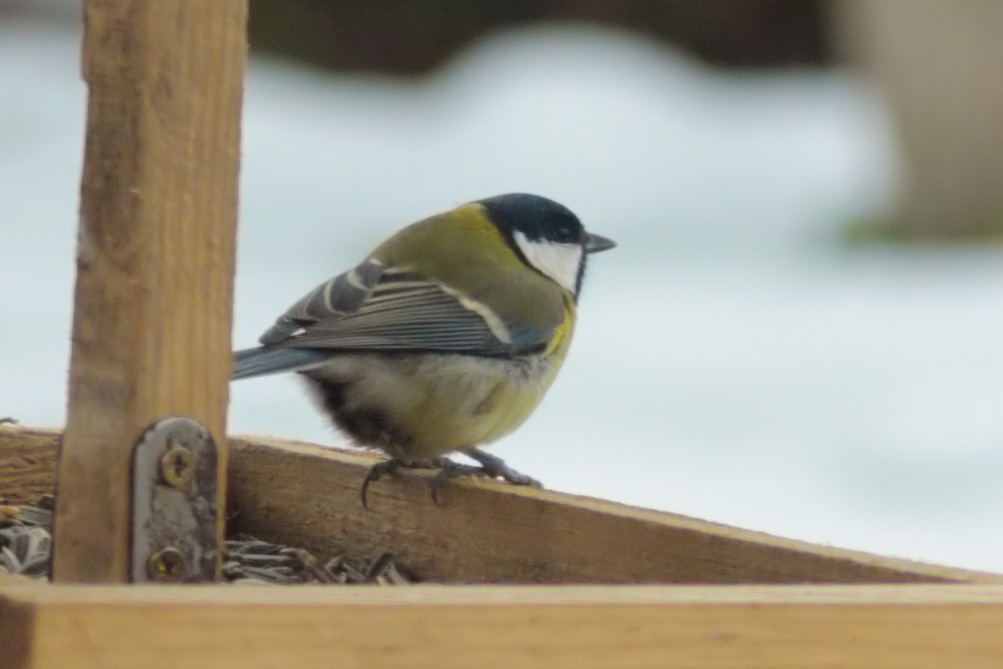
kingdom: Animalia
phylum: Chordata
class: Aves
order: Passeriformes
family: Paridae
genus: Parus
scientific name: Parus major
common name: Great tit
